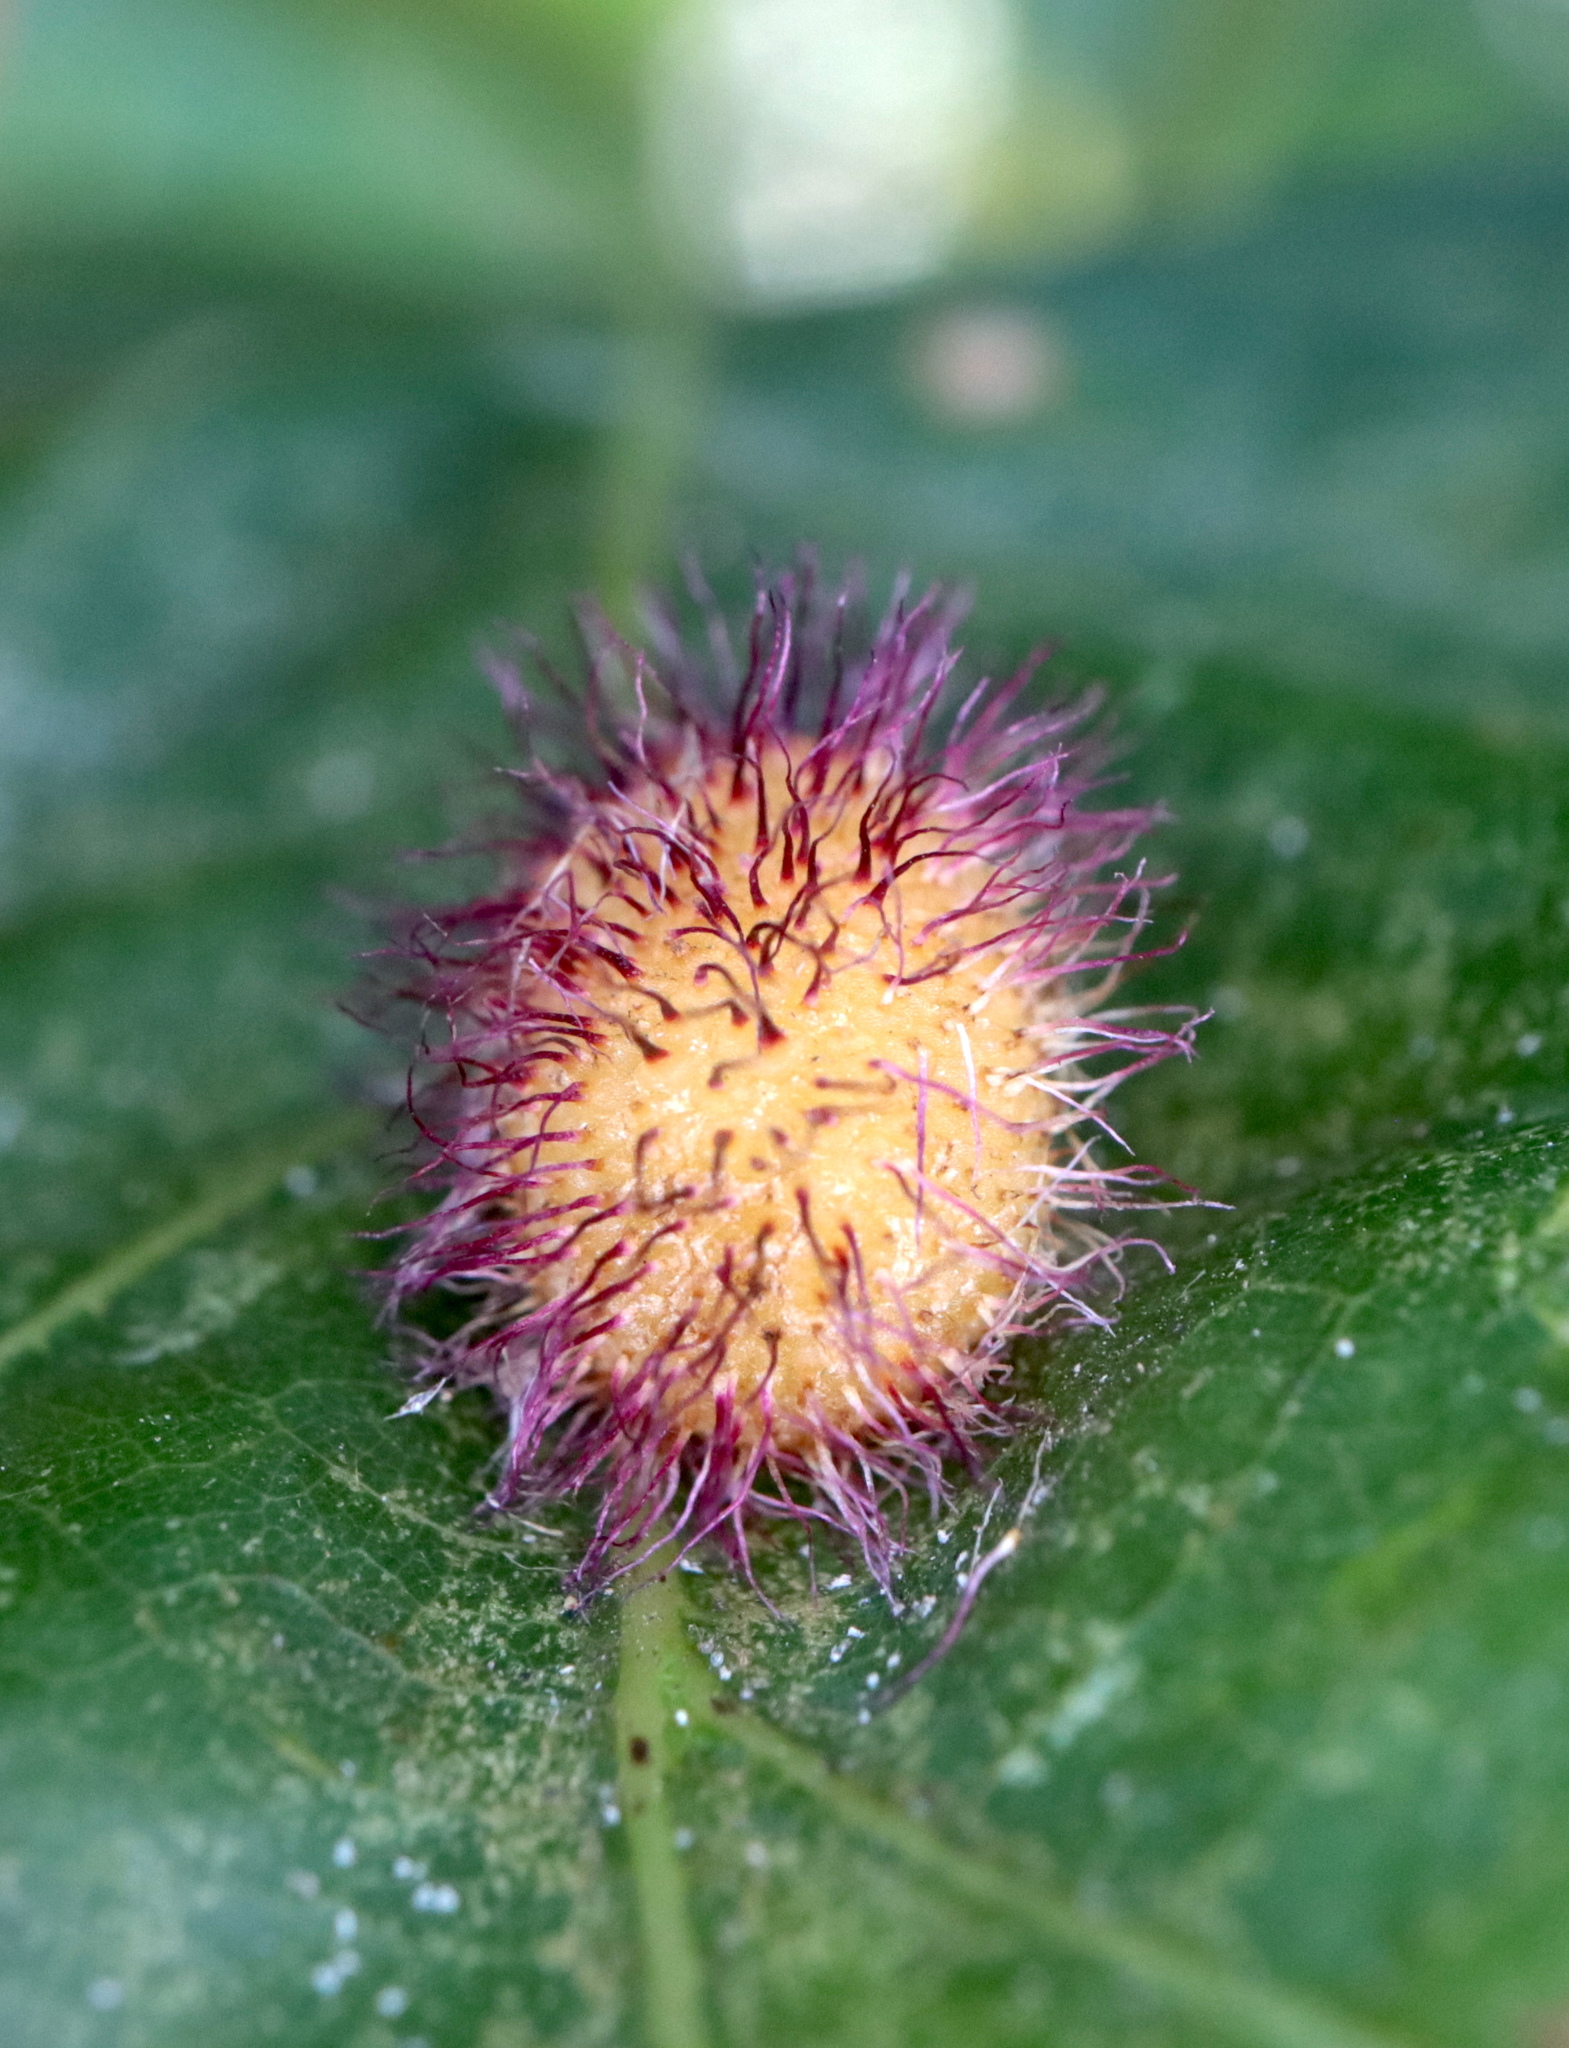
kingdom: Animalia
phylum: Arthropoda
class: Insecta
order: Hymenoptera
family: Cynipidae
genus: Acraspis
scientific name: Acraspis erinacei
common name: Hedgehog gall wasp
